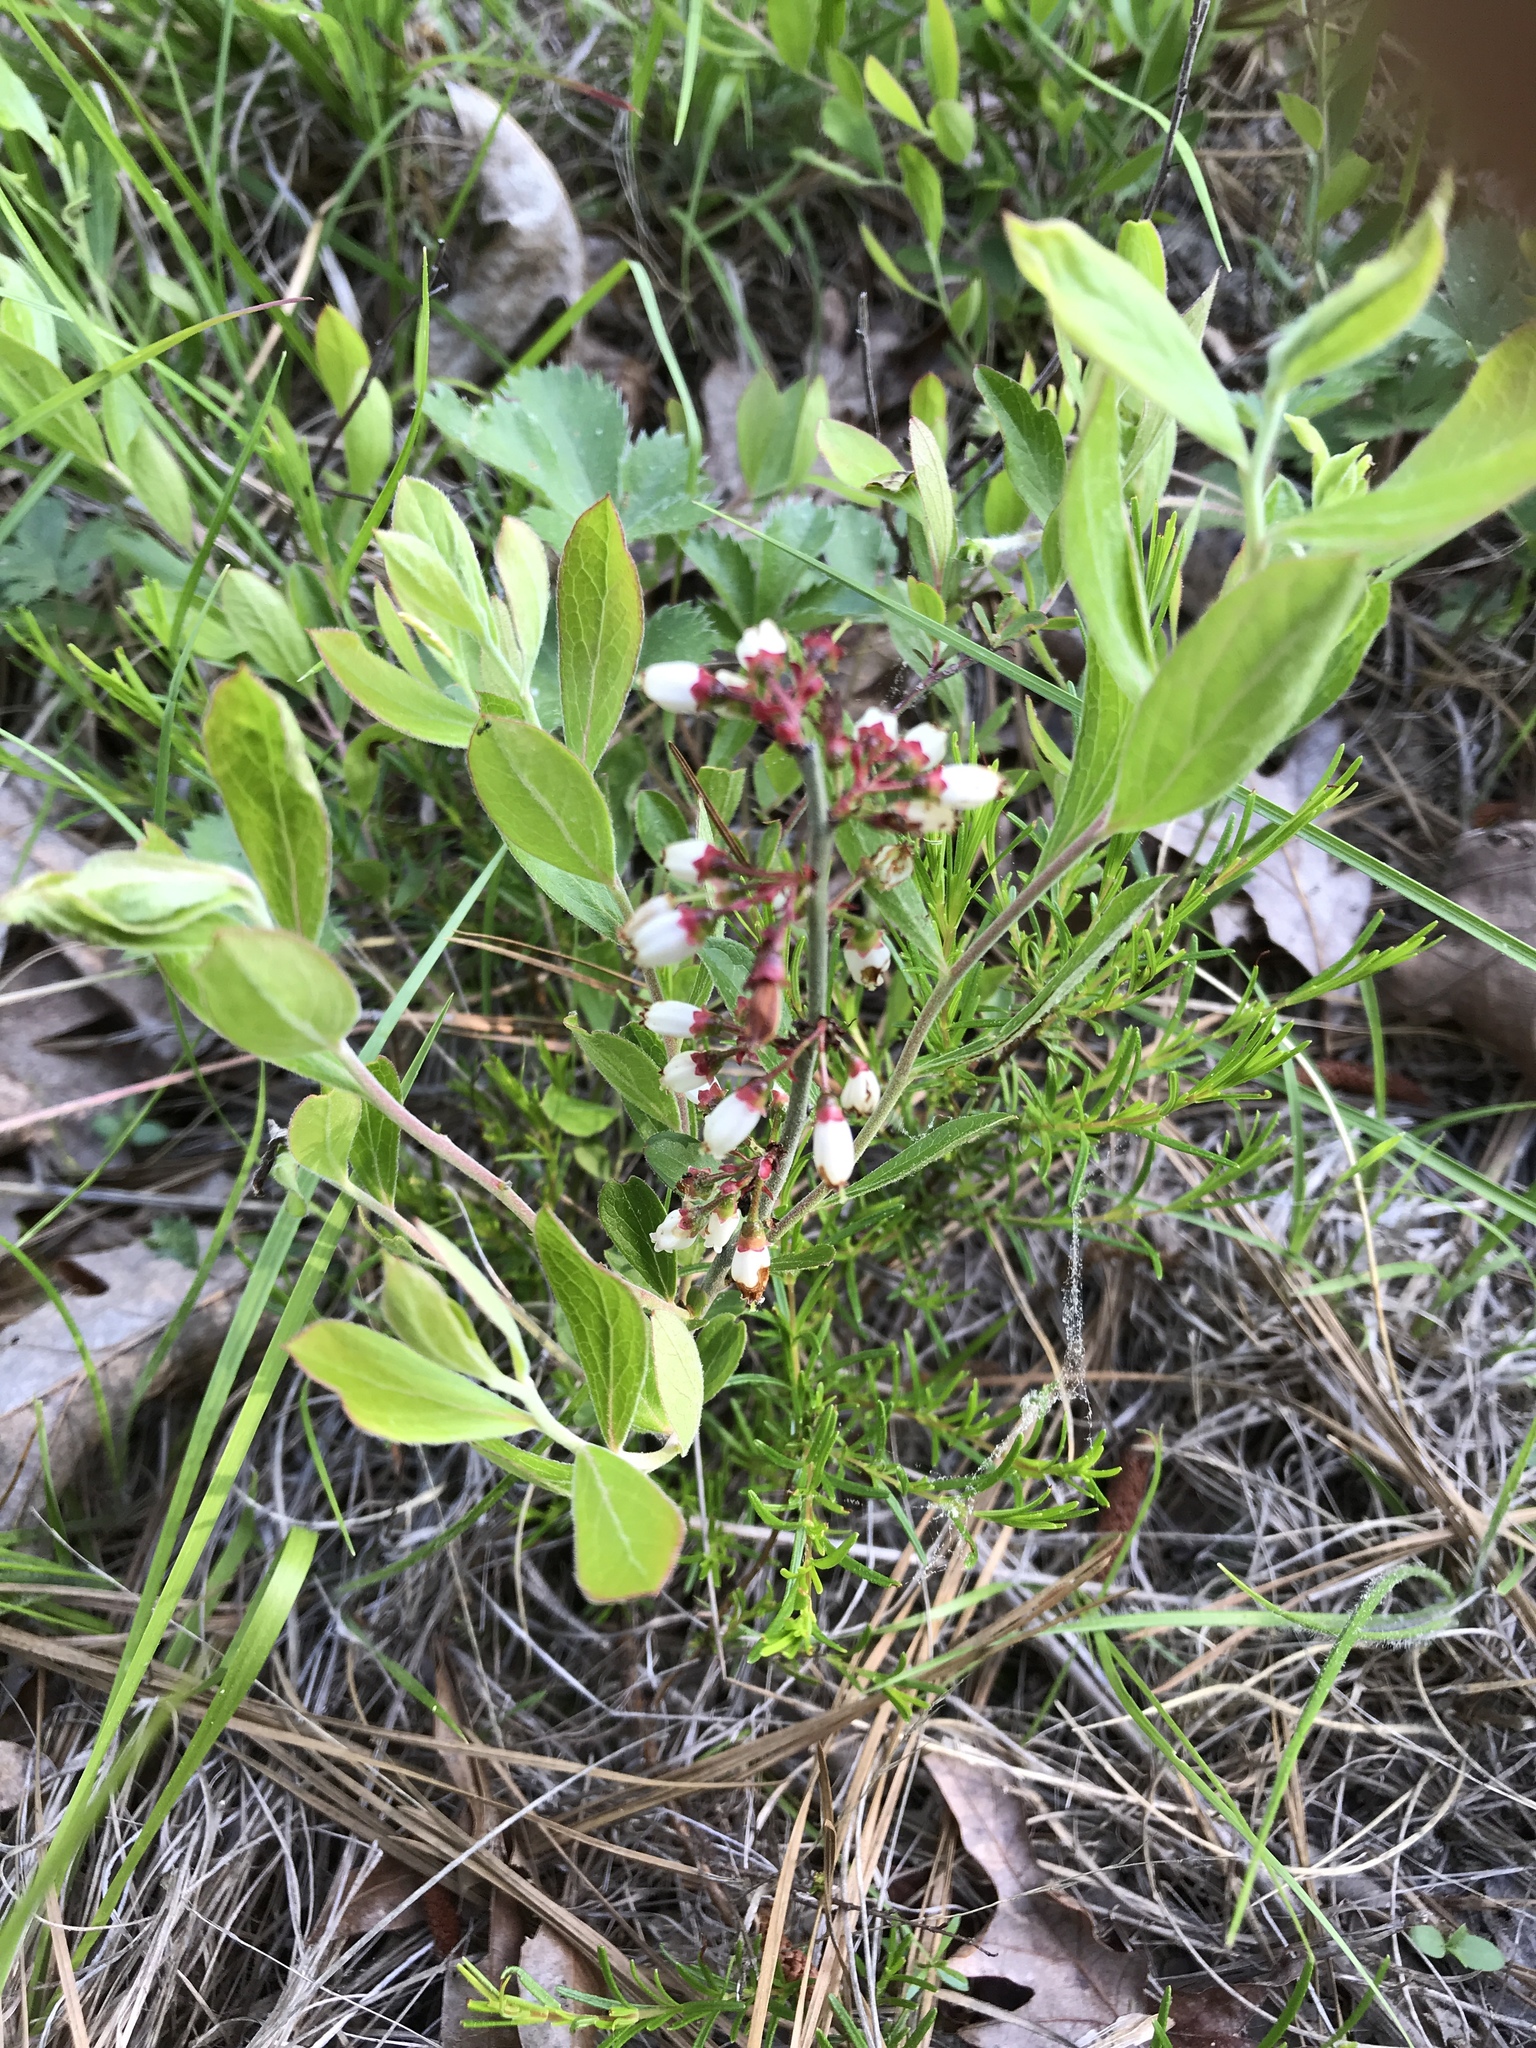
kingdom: Plantae
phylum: Tracheophyta
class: Magnoliopsida
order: Ericales
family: Ericaceae
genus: Vaccinium
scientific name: Vaccinium tenellum
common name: Southern blueberry
